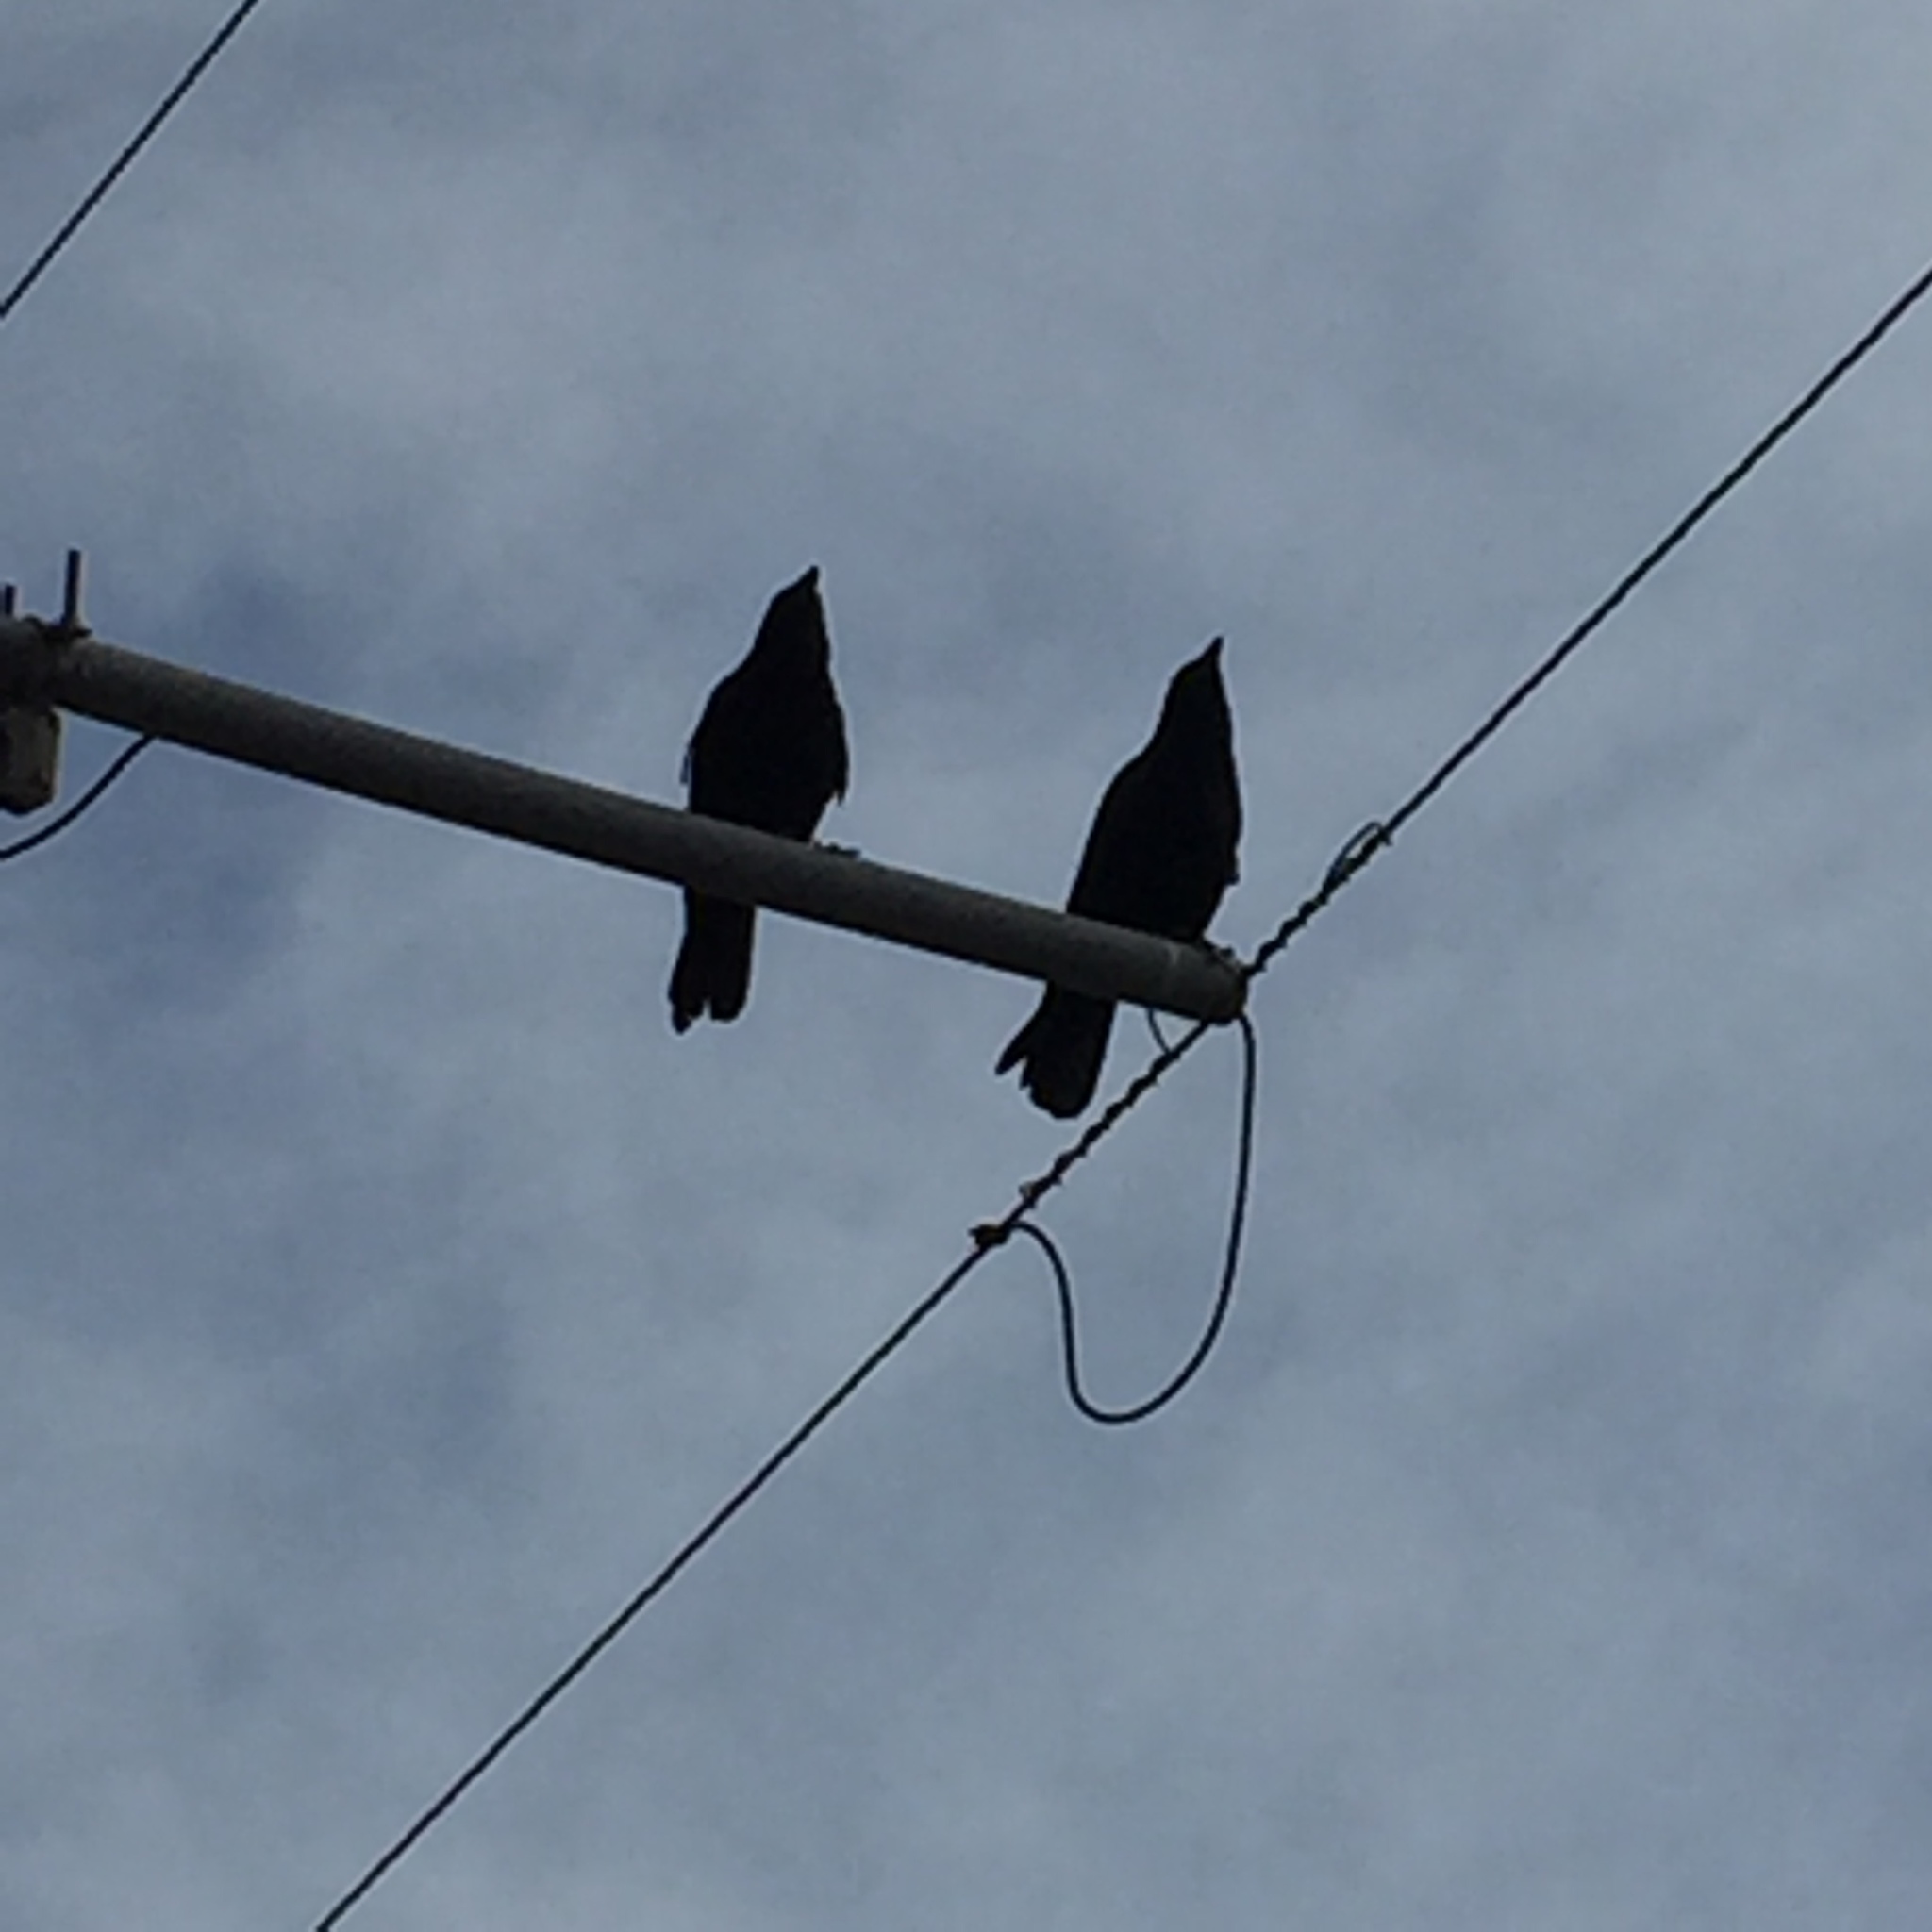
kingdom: Animalia
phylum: Chordata
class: Aves
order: Passeriformes
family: Corvidae
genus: Corvus
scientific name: Corvus brachyrhynchos
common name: American crow
